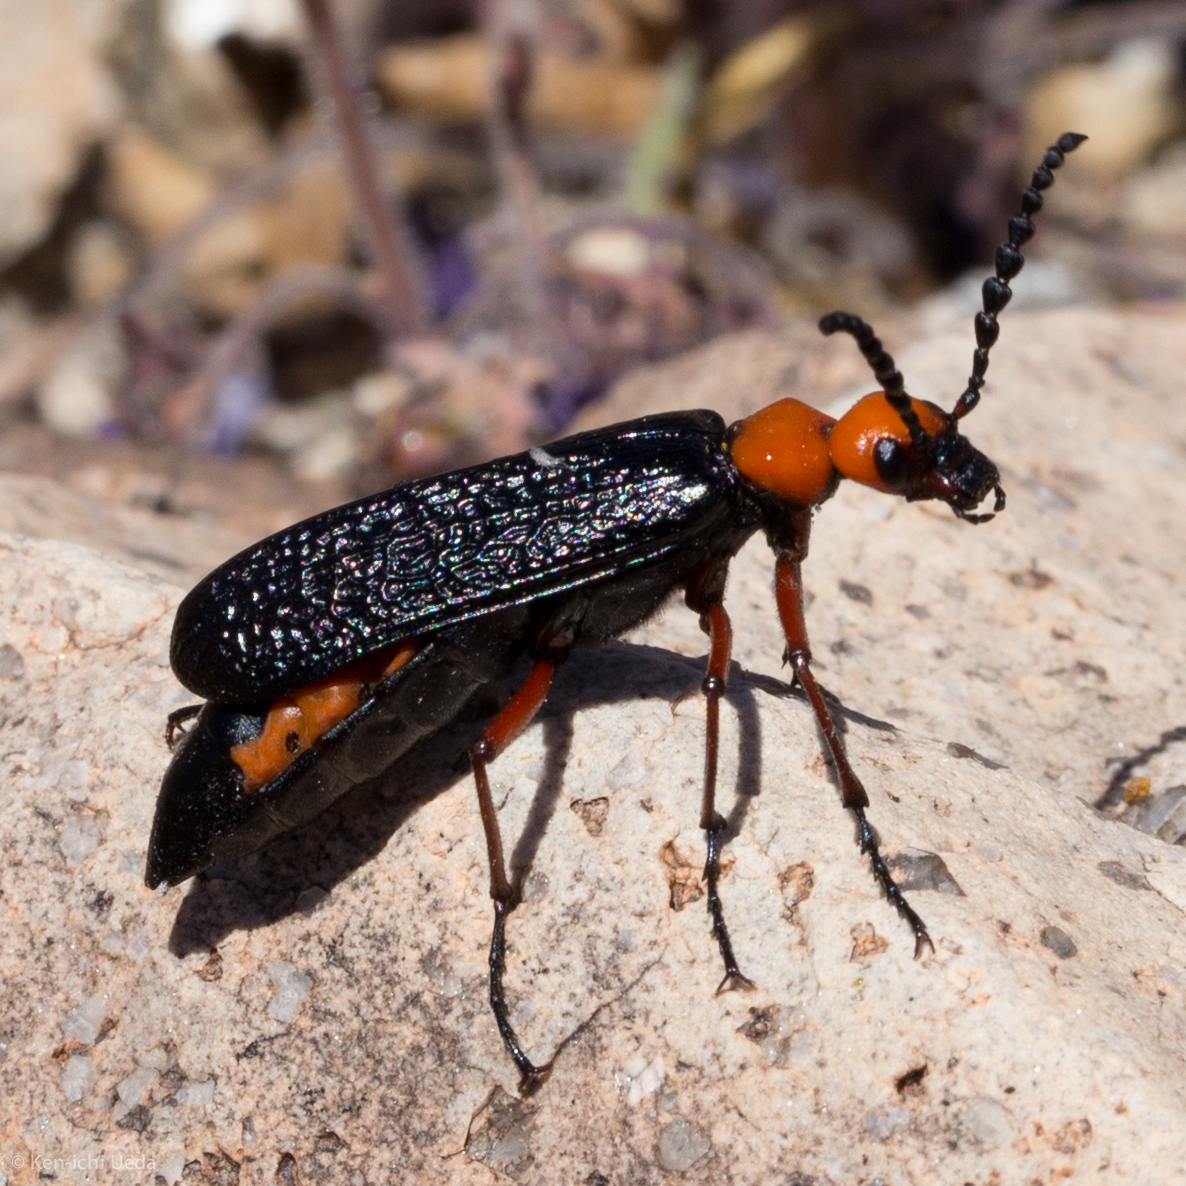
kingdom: Animalia
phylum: Arthropoda
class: Insecta
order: Coleoptera
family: Meloidae
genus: Lytta
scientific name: Lytta magister
